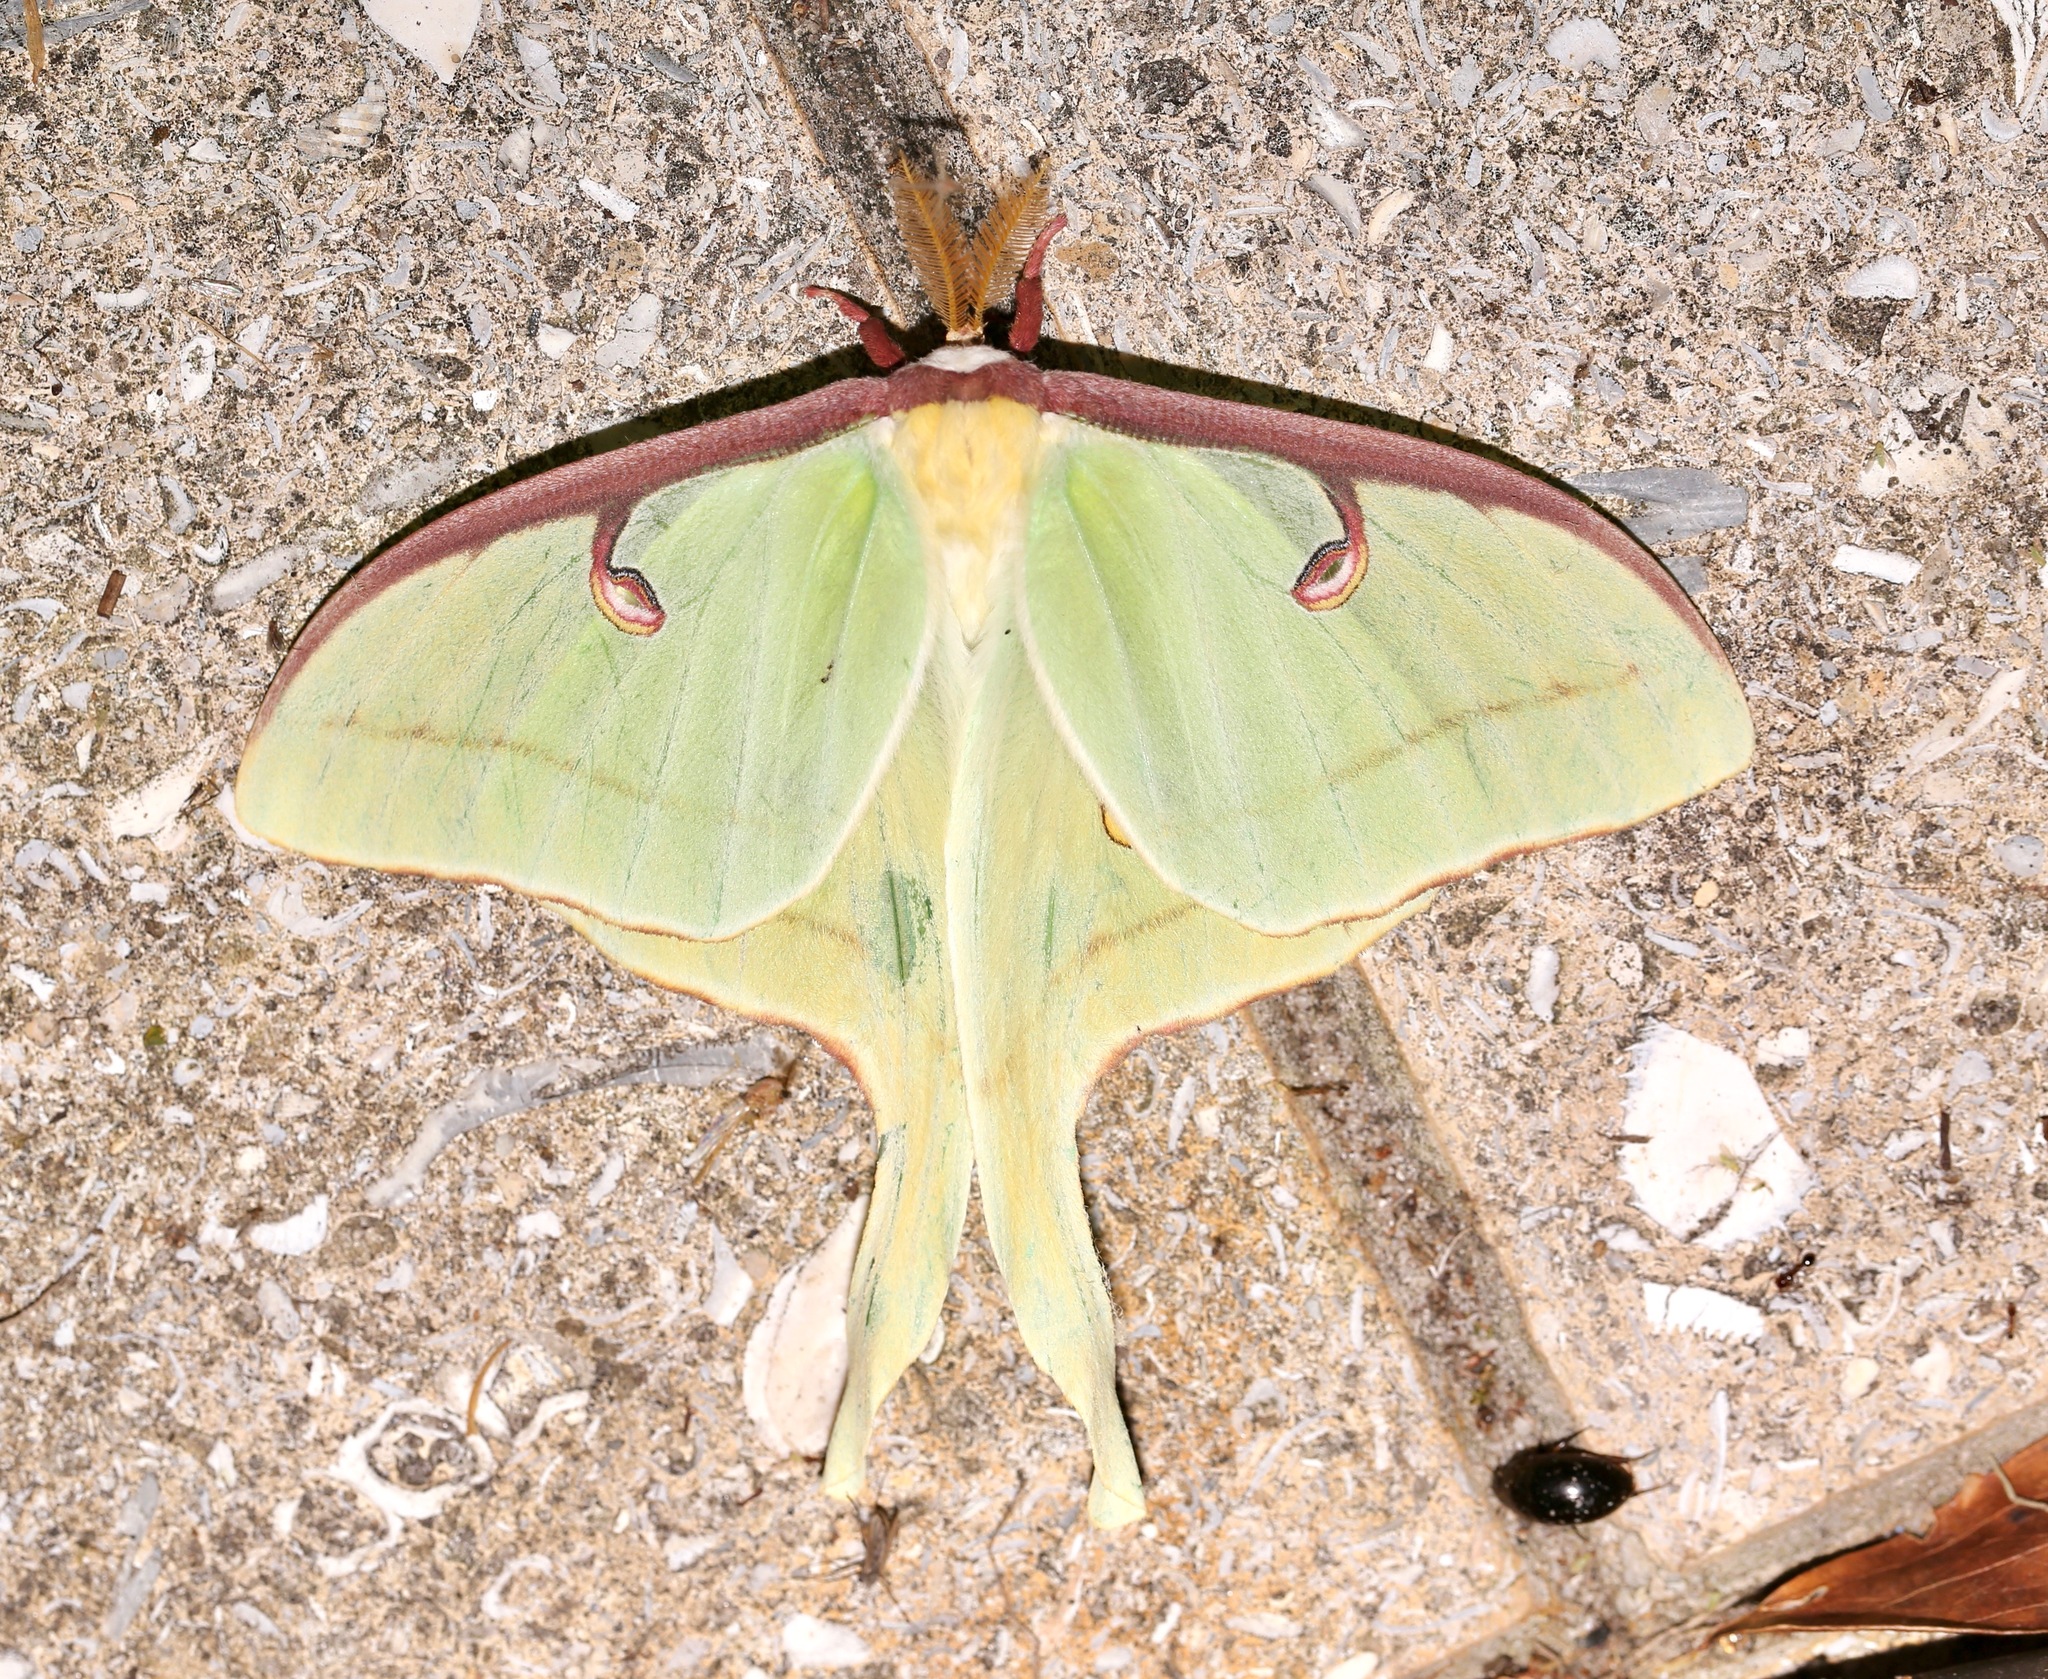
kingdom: Animalia
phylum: Arthropoda
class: Insecta
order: Lepidoptera
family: Saturniidae
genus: Actias
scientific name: Actias luna
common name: Luna moth
